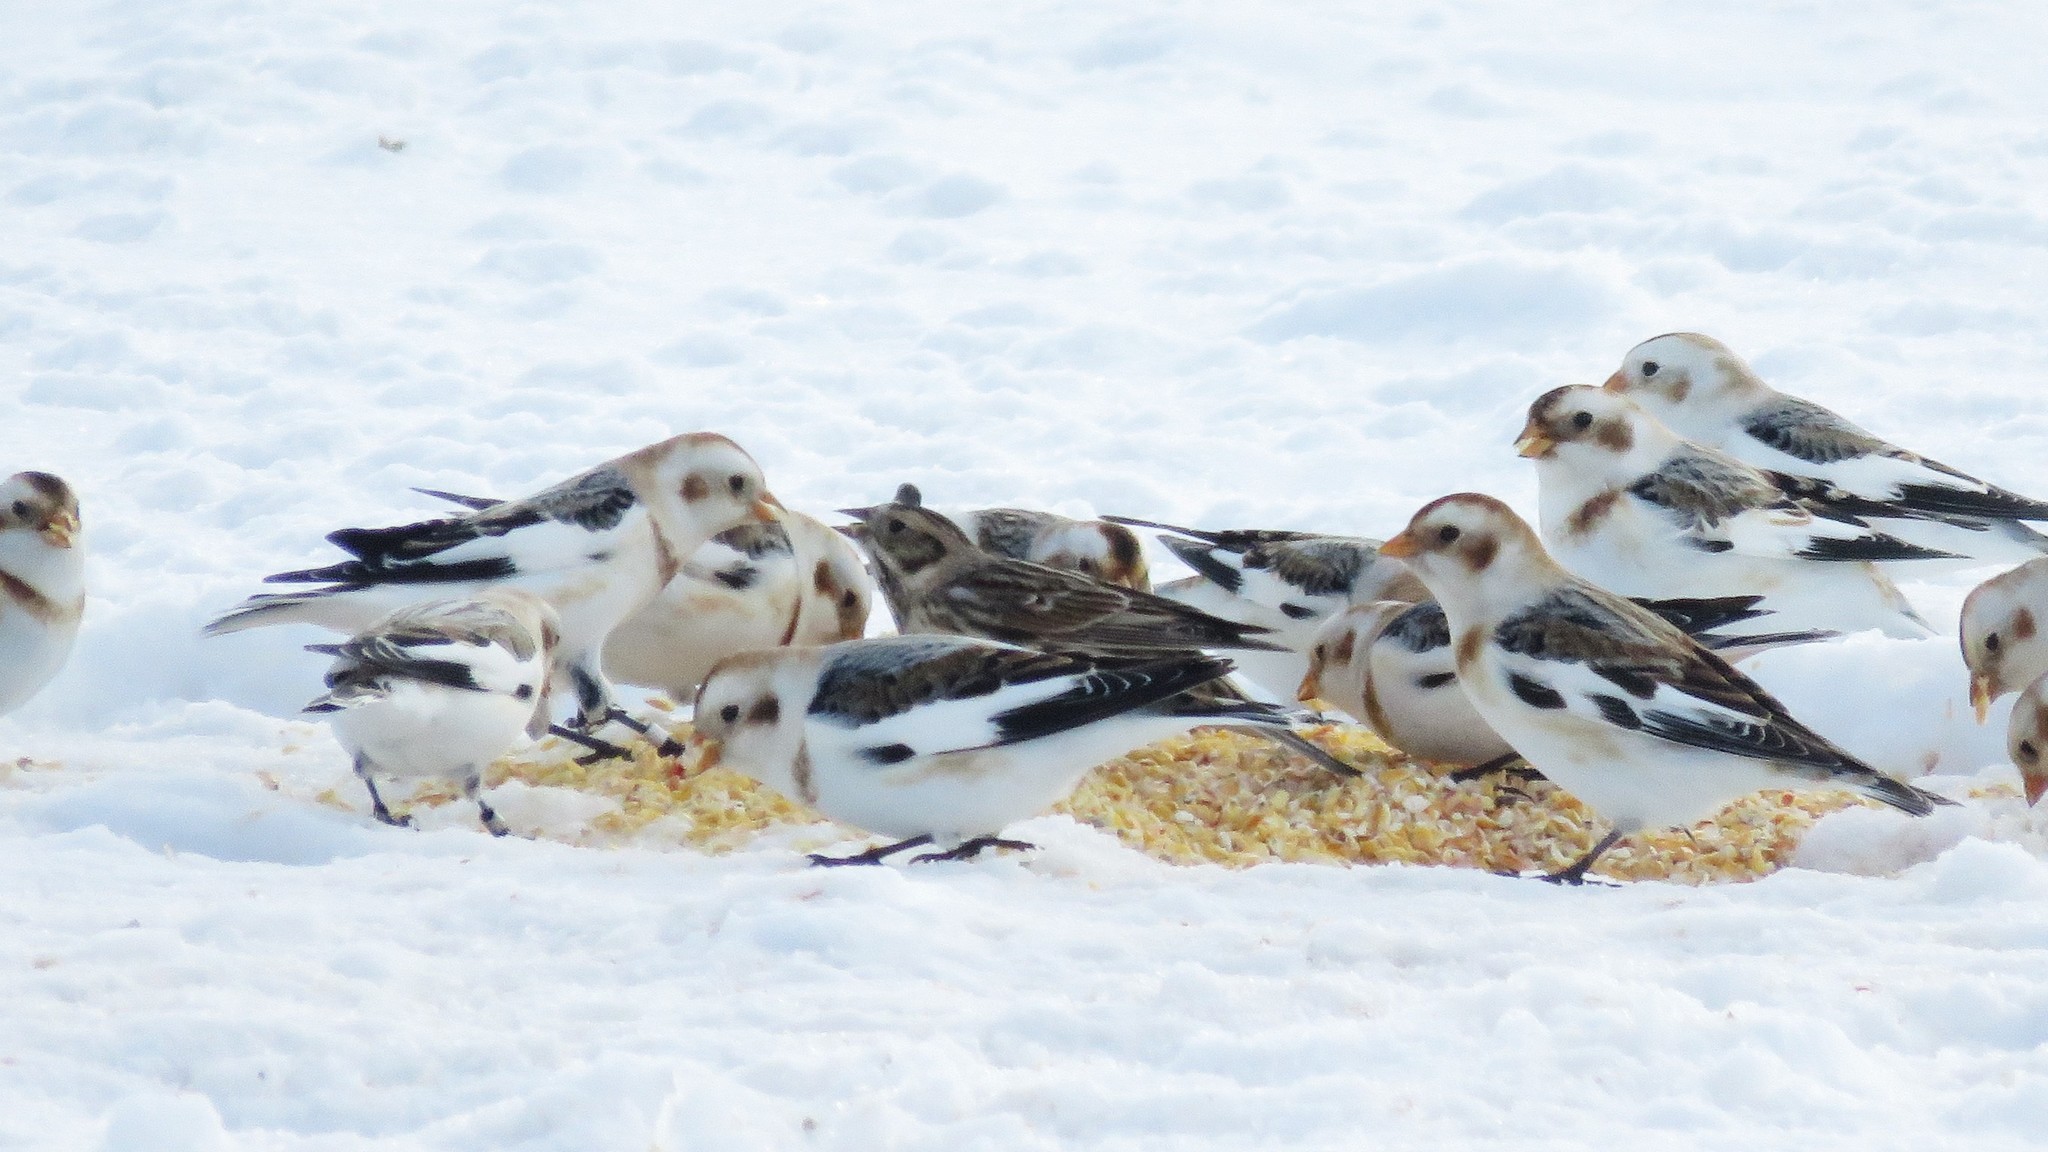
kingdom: Animalia
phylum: Chordata
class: Aves
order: Passeriformes
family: Calcariidae
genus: Calcarius
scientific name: Calcarius lapponicus
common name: Lapland longspur
